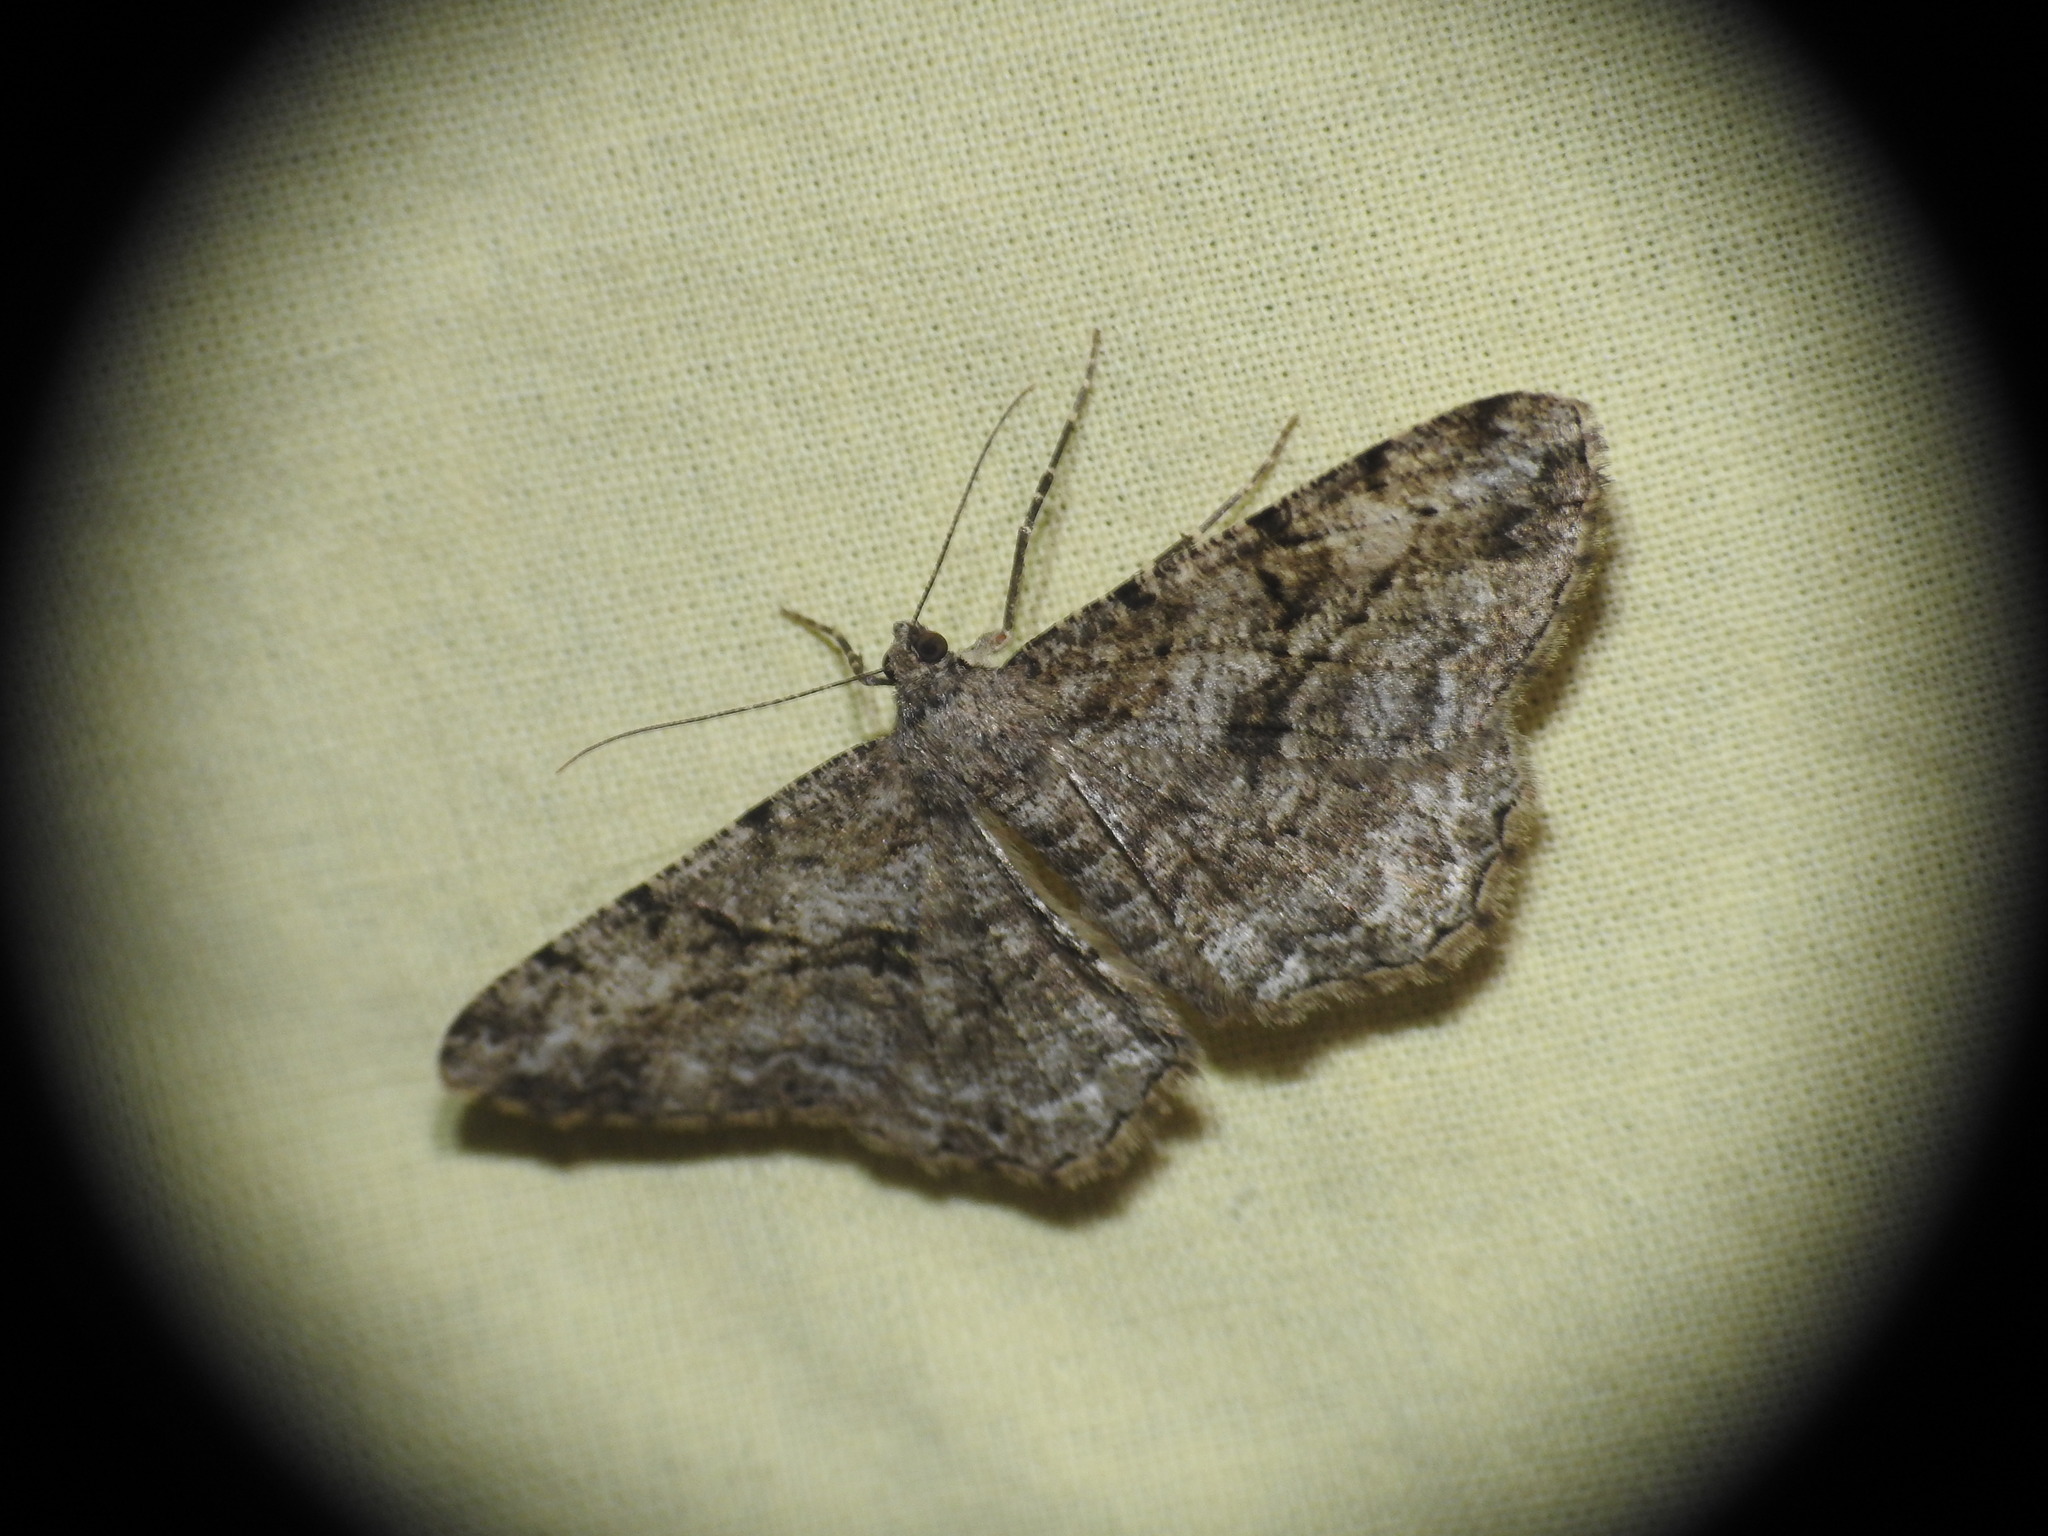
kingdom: Animalia
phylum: Arthropoda
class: Insecta
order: Lepidoptera
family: Geometridae
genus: Peribatodes
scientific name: Peribatodes rhomboidaria
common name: Willow beauty
